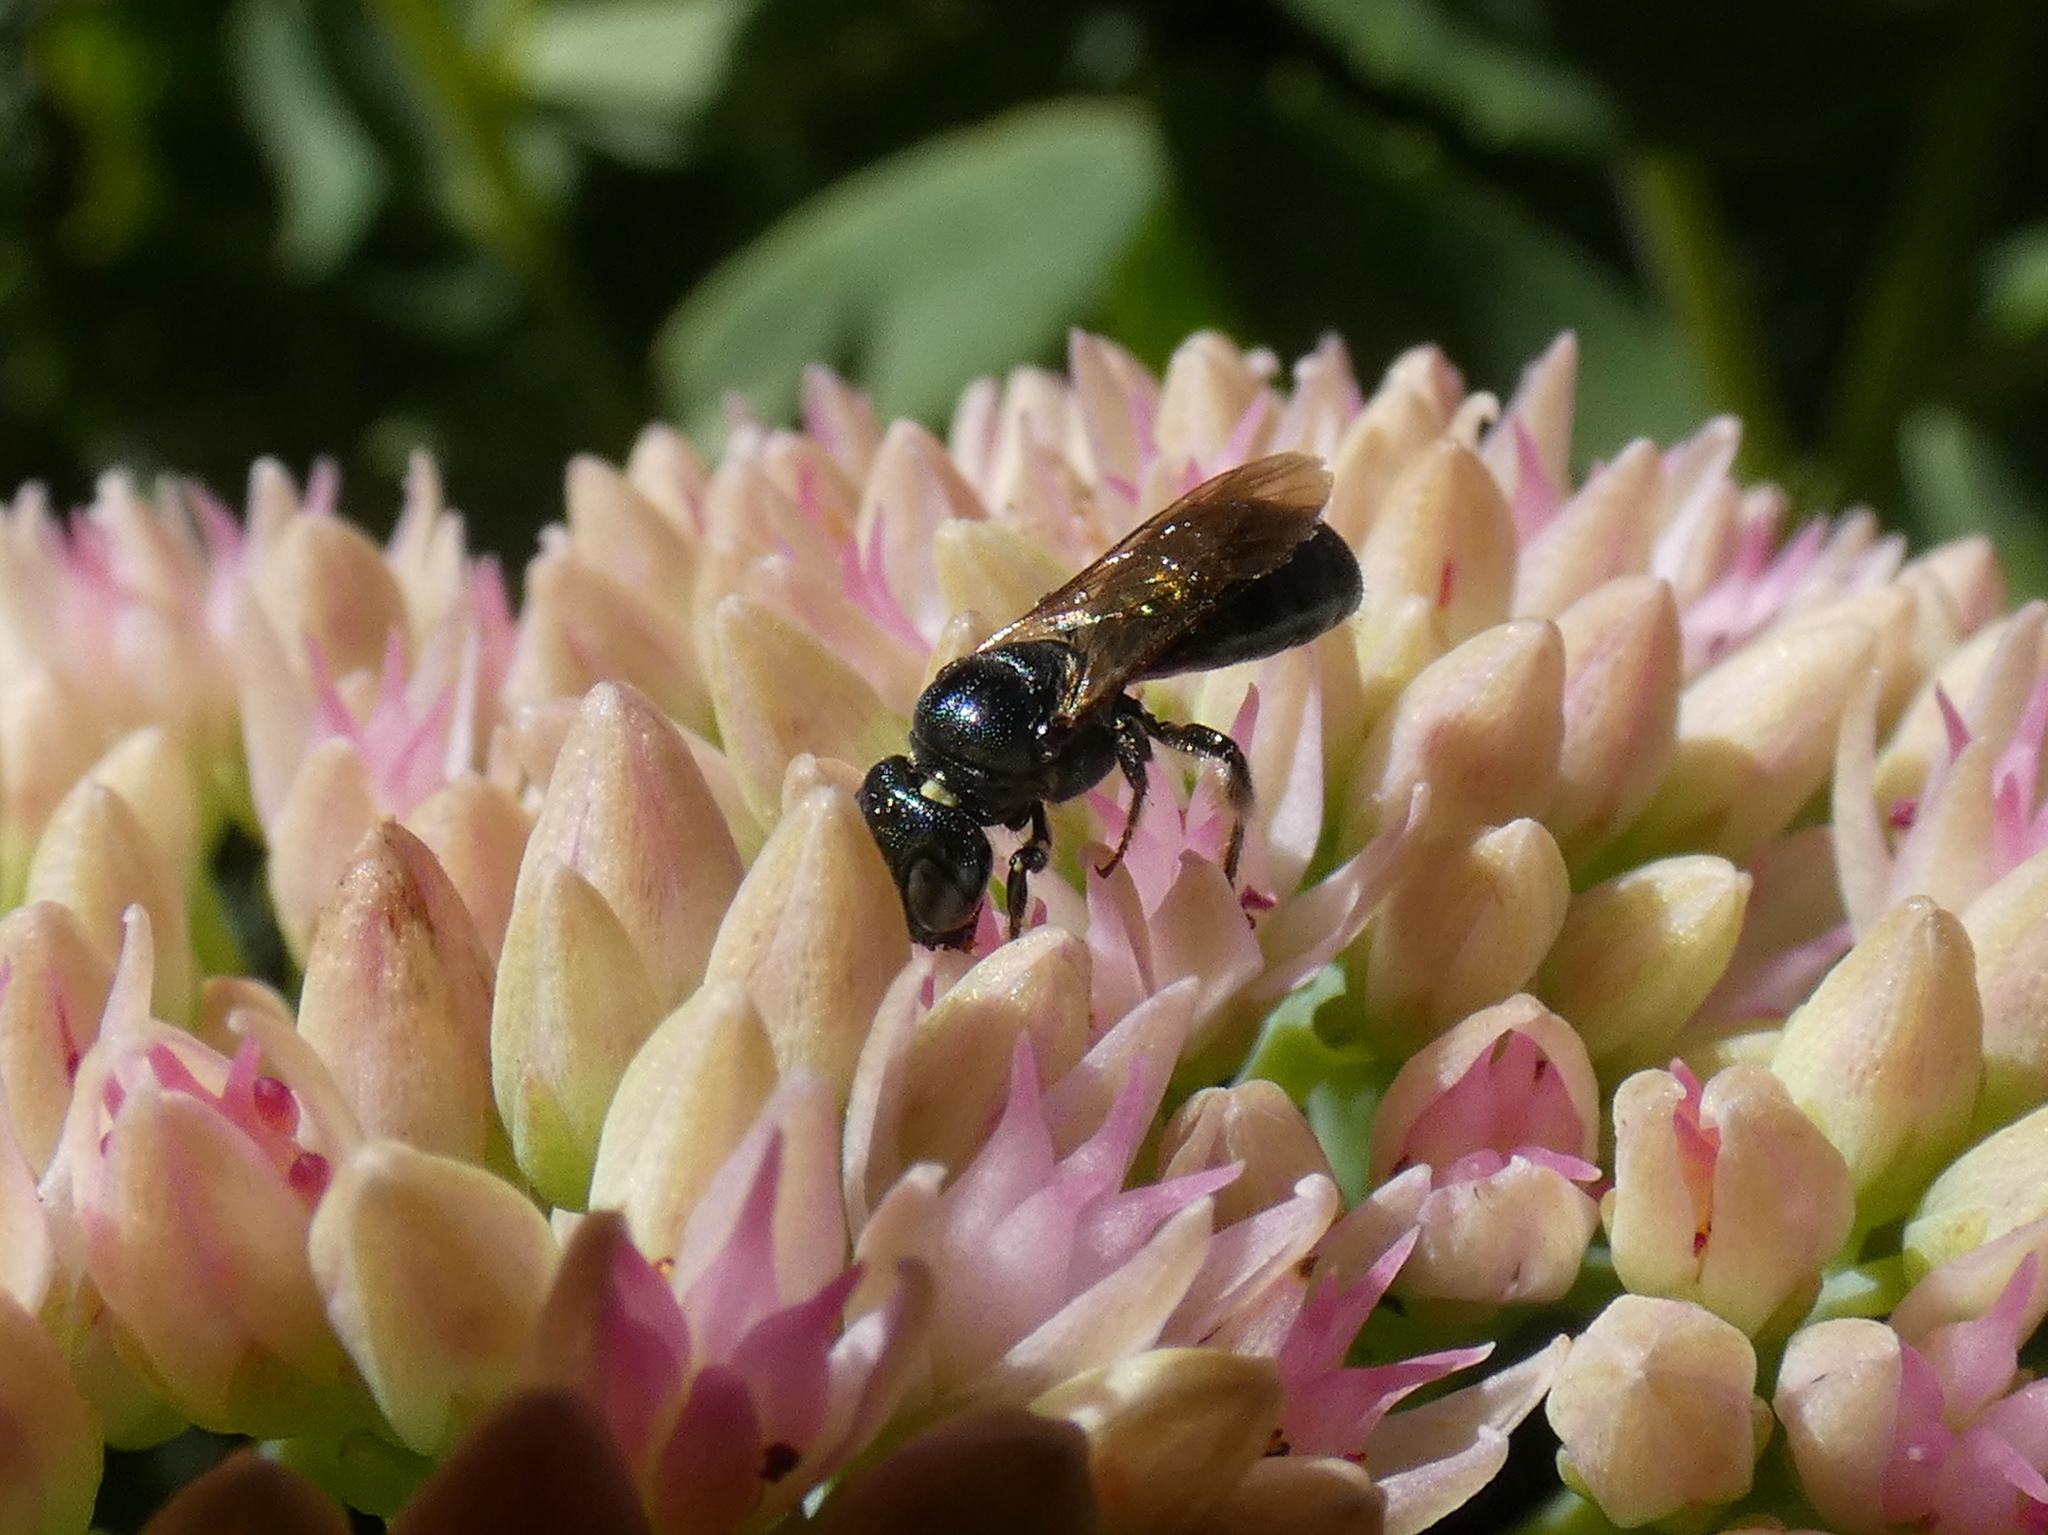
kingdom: Animalia
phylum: Arthropoda
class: Insecta
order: Hymenoptera
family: Apidae
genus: Zadontomerus
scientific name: Zadontomerus
